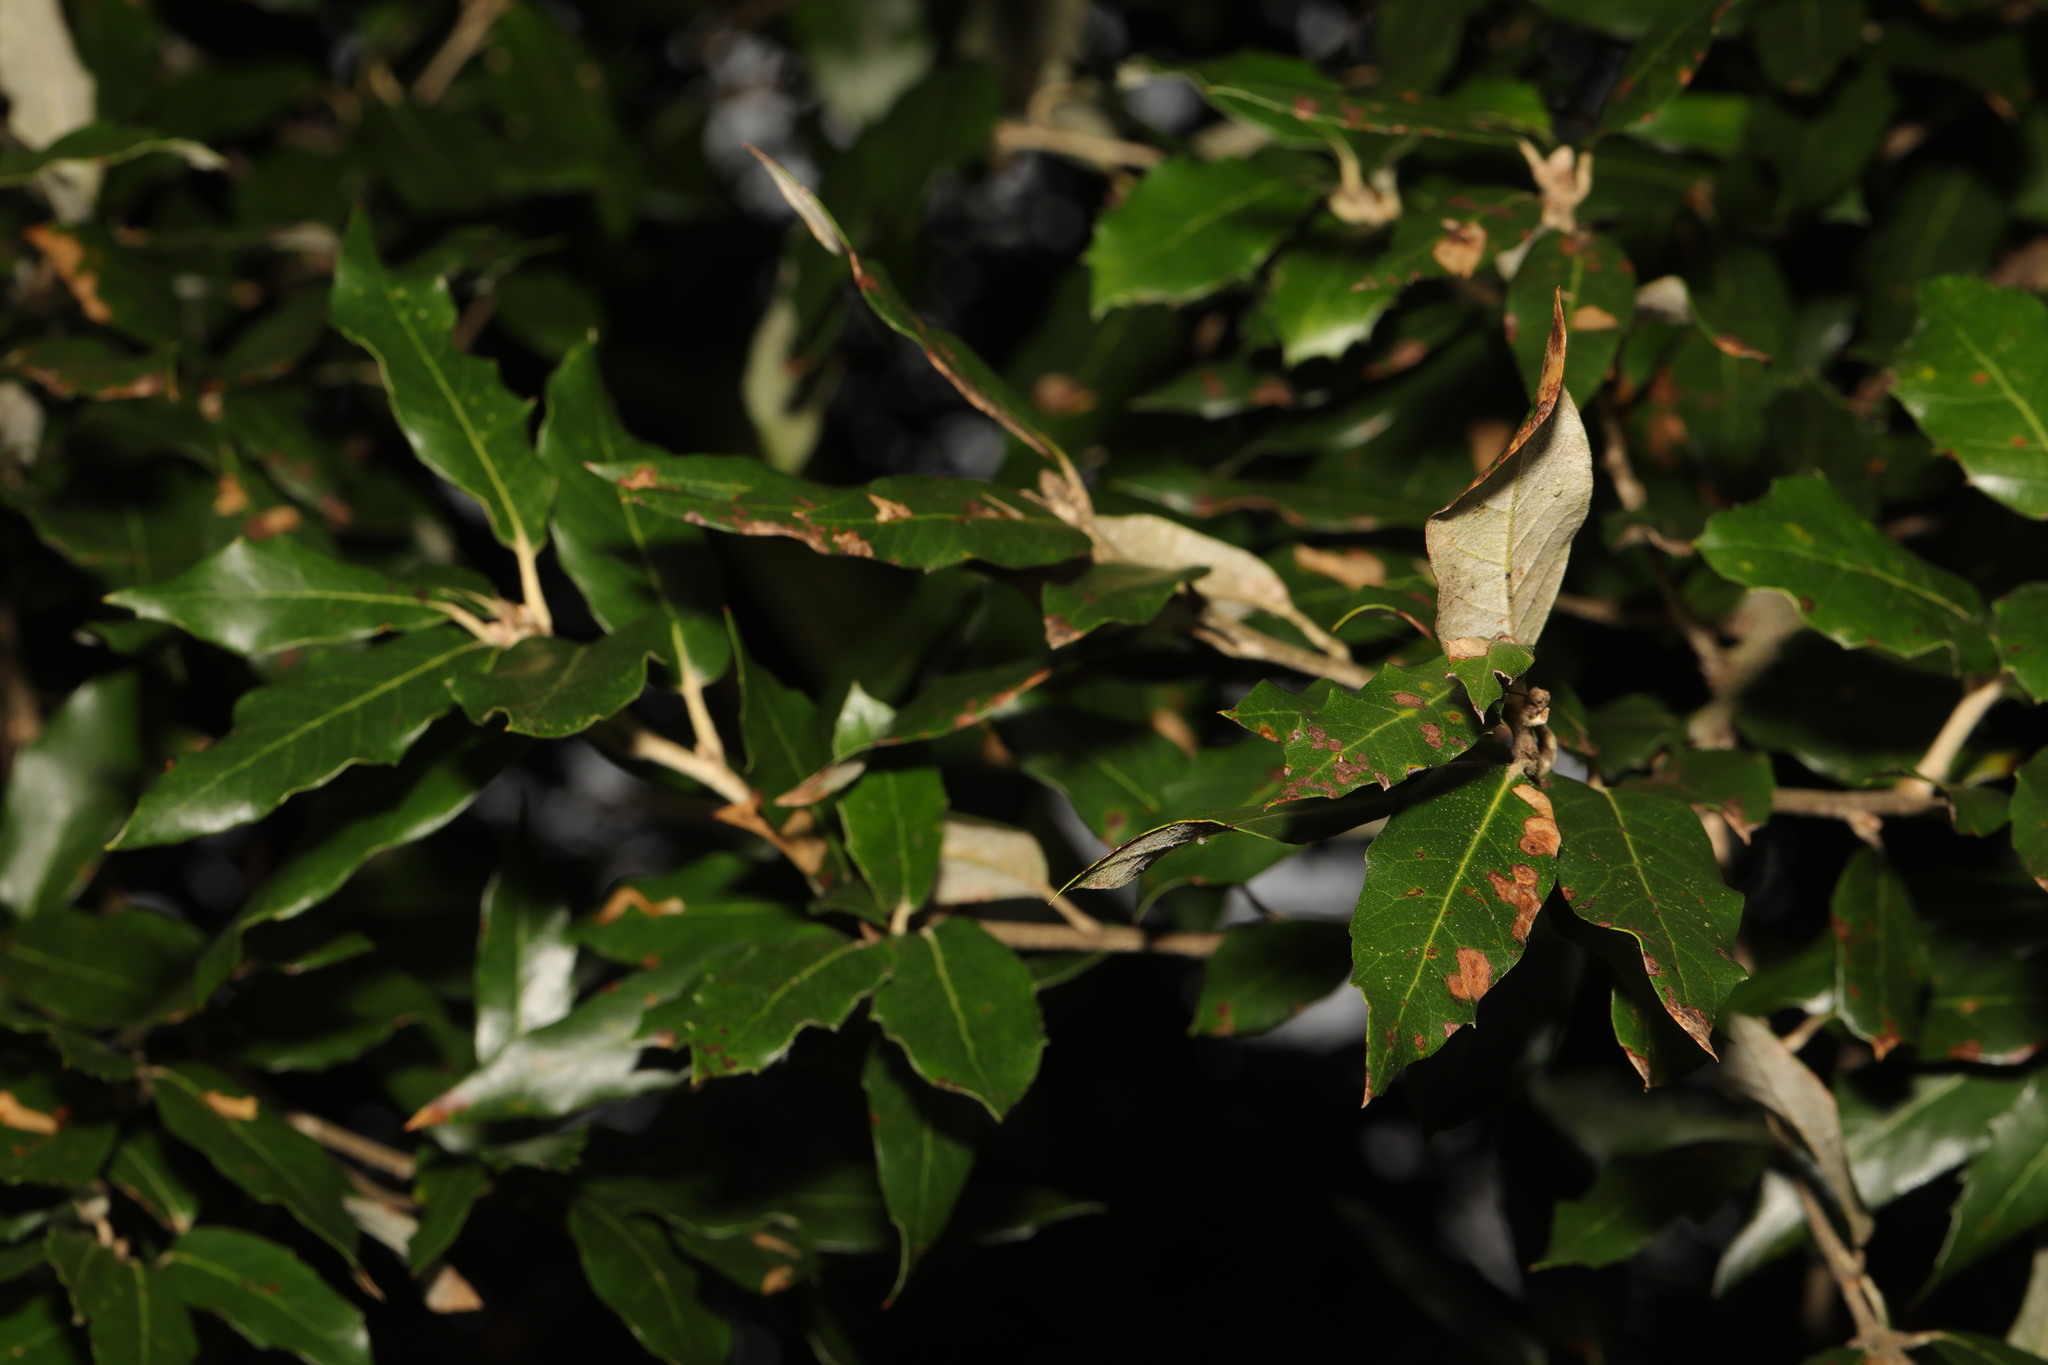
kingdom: Plantae
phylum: Tracheophyta
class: Magnoliopsida
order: Fagales
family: Fagaceae
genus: Quercus
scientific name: Quercus ilex
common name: Evergreen oak
